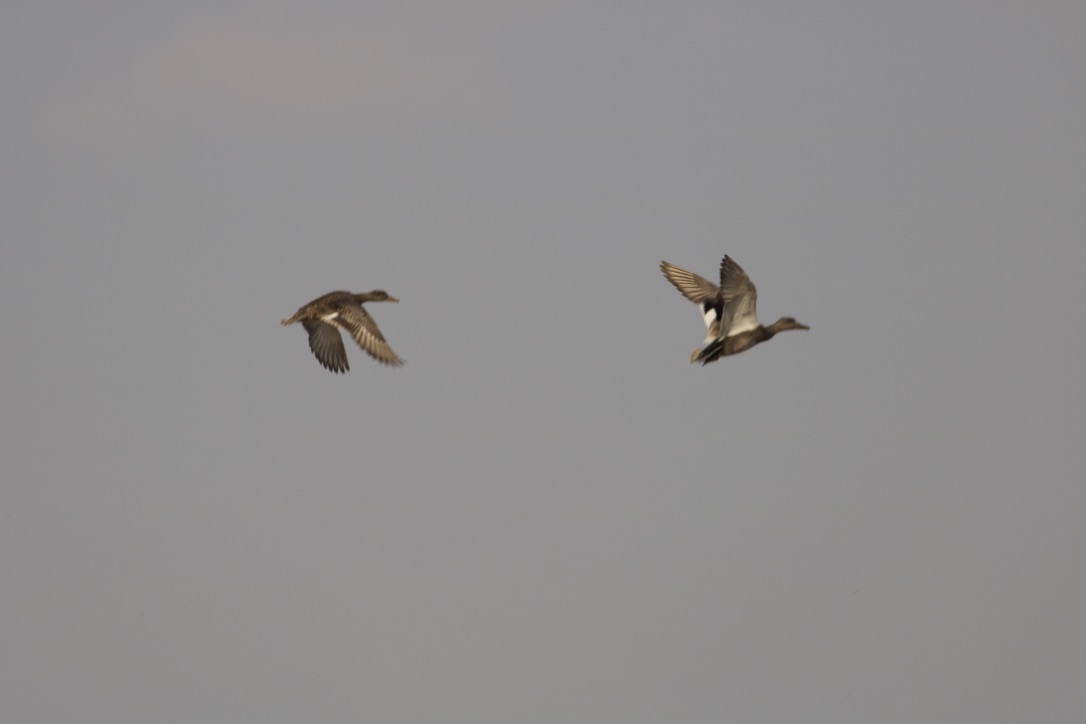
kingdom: Animalia
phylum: Chordata
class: Aves
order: Anseriformes
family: Anatidae
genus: Mareca
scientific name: Mareca strepera
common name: Gadwall
